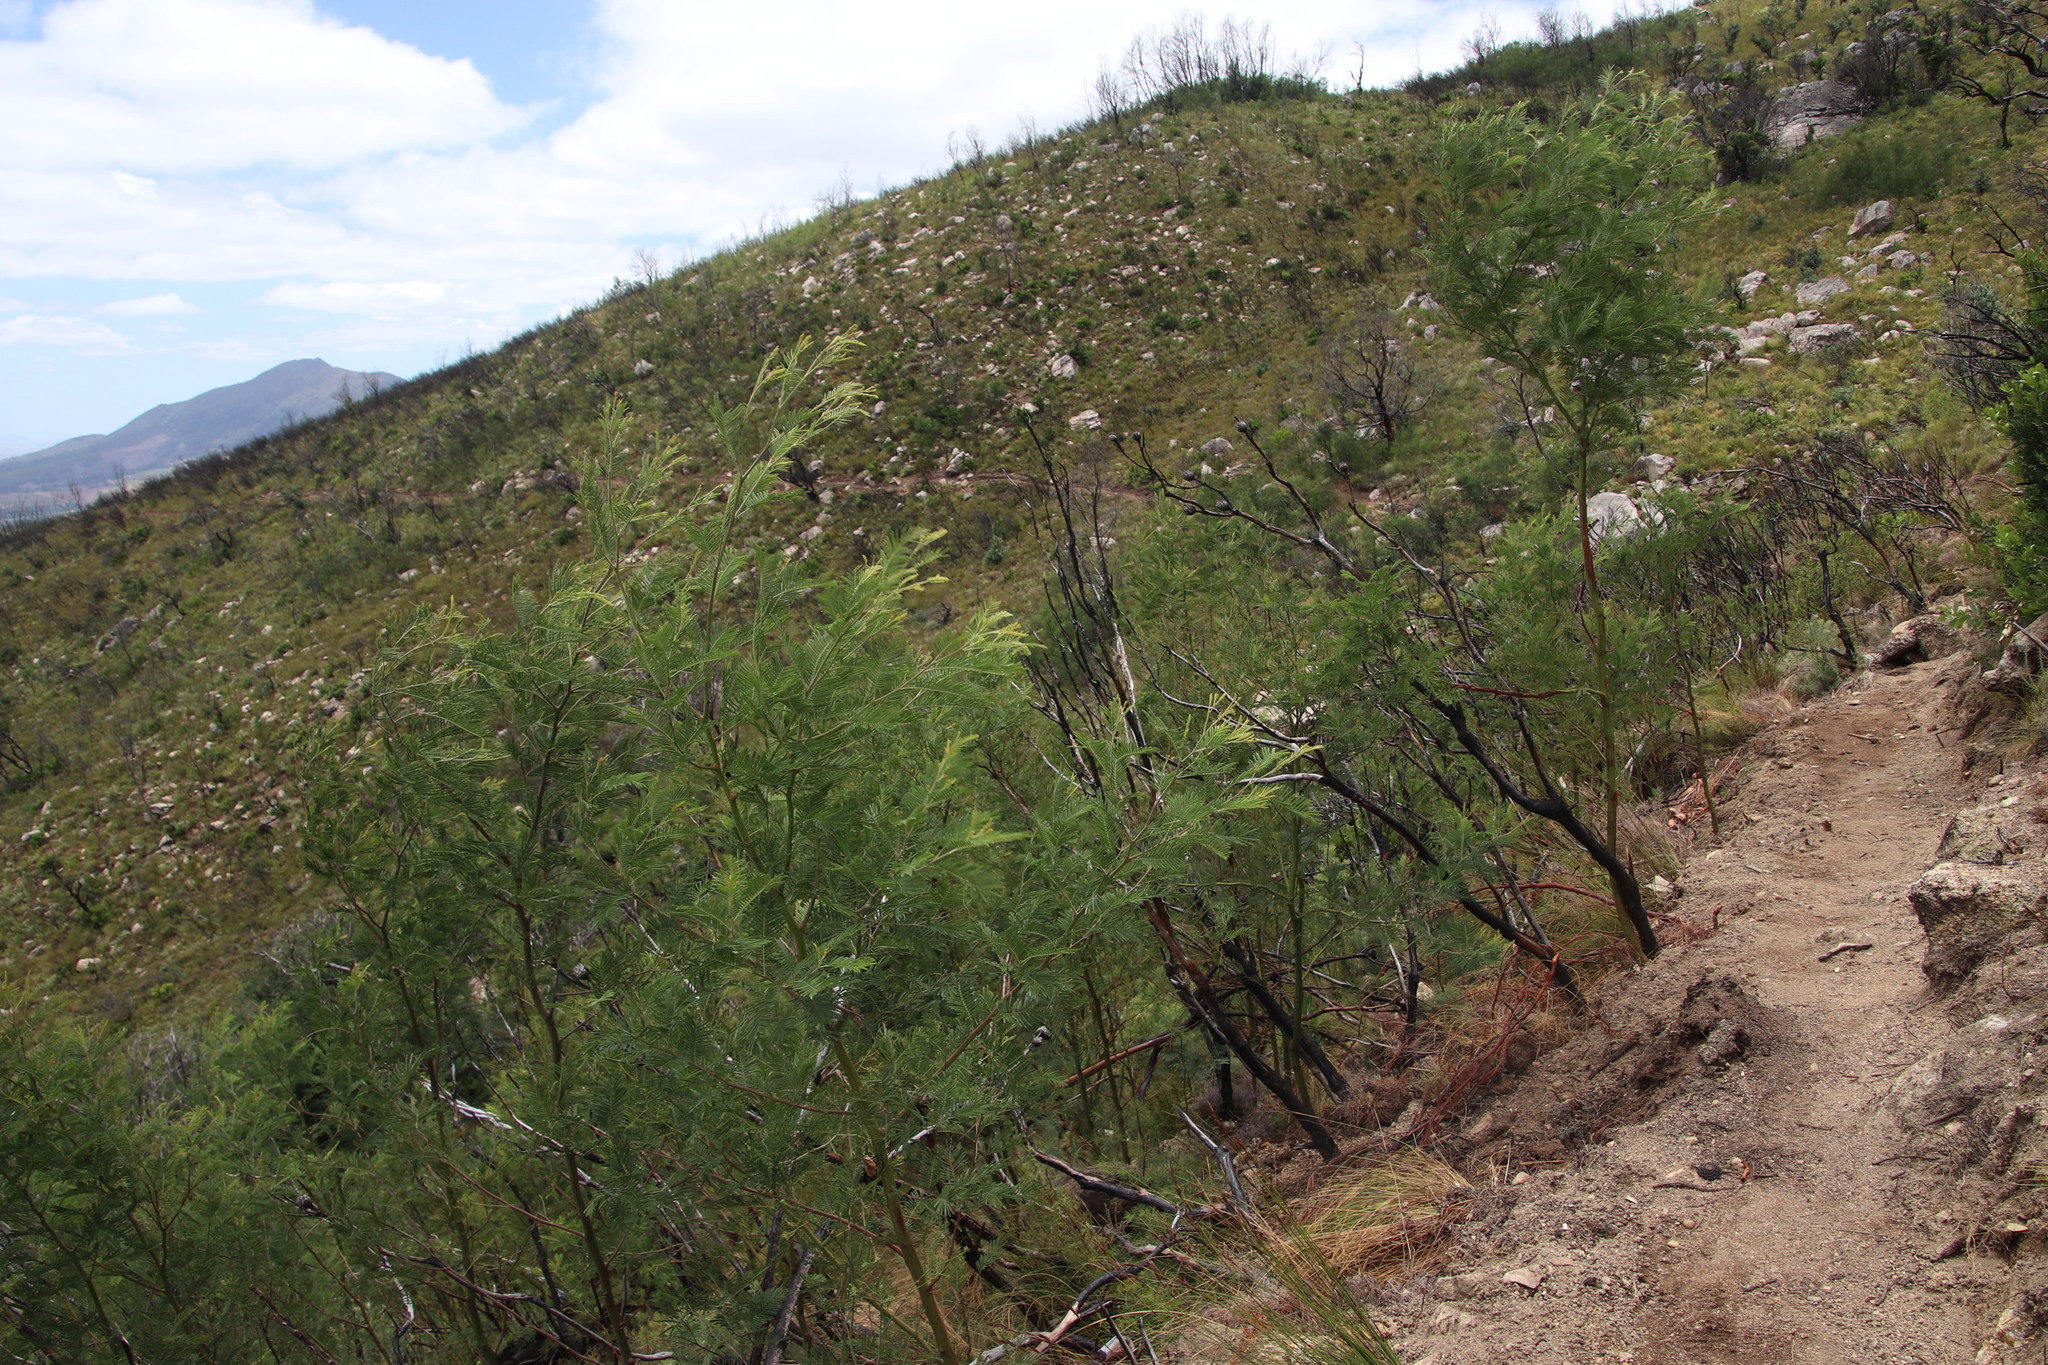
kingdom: Plantae
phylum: Tracheophyta
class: Magnoliopsida
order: Fabales
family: Fabaceae
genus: Acacia
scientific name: Acacia mearnsii
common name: Black wattle
